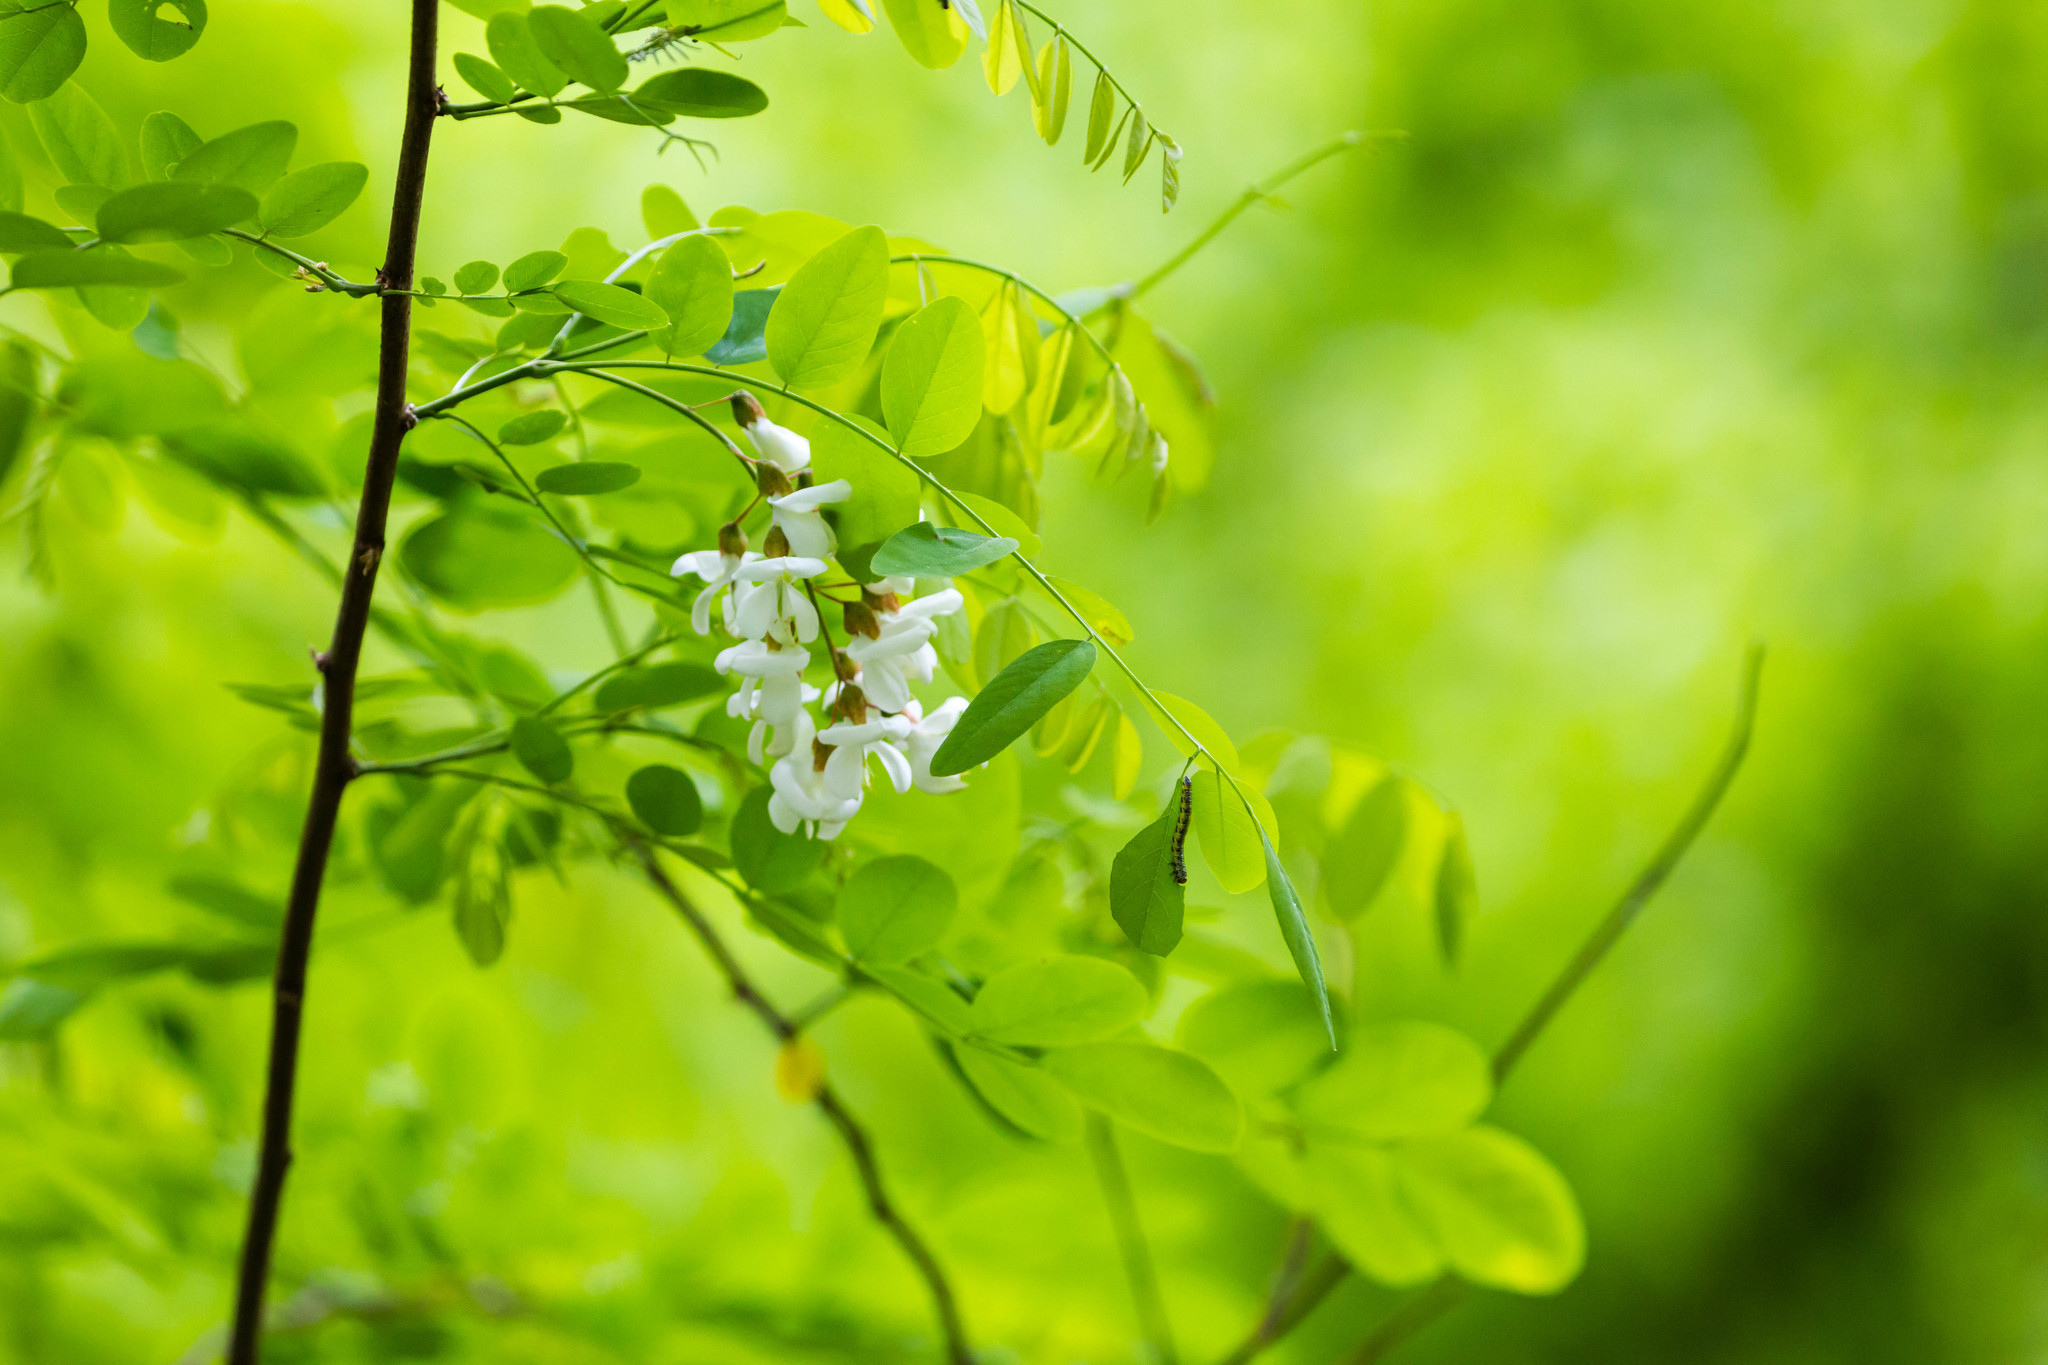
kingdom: Plantae
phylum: Tracheophyta
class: Magnoliopsida
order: Fabales
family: Fabaceae
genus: Robinia
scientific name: Robinia pseudoacacia
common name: Black locust
